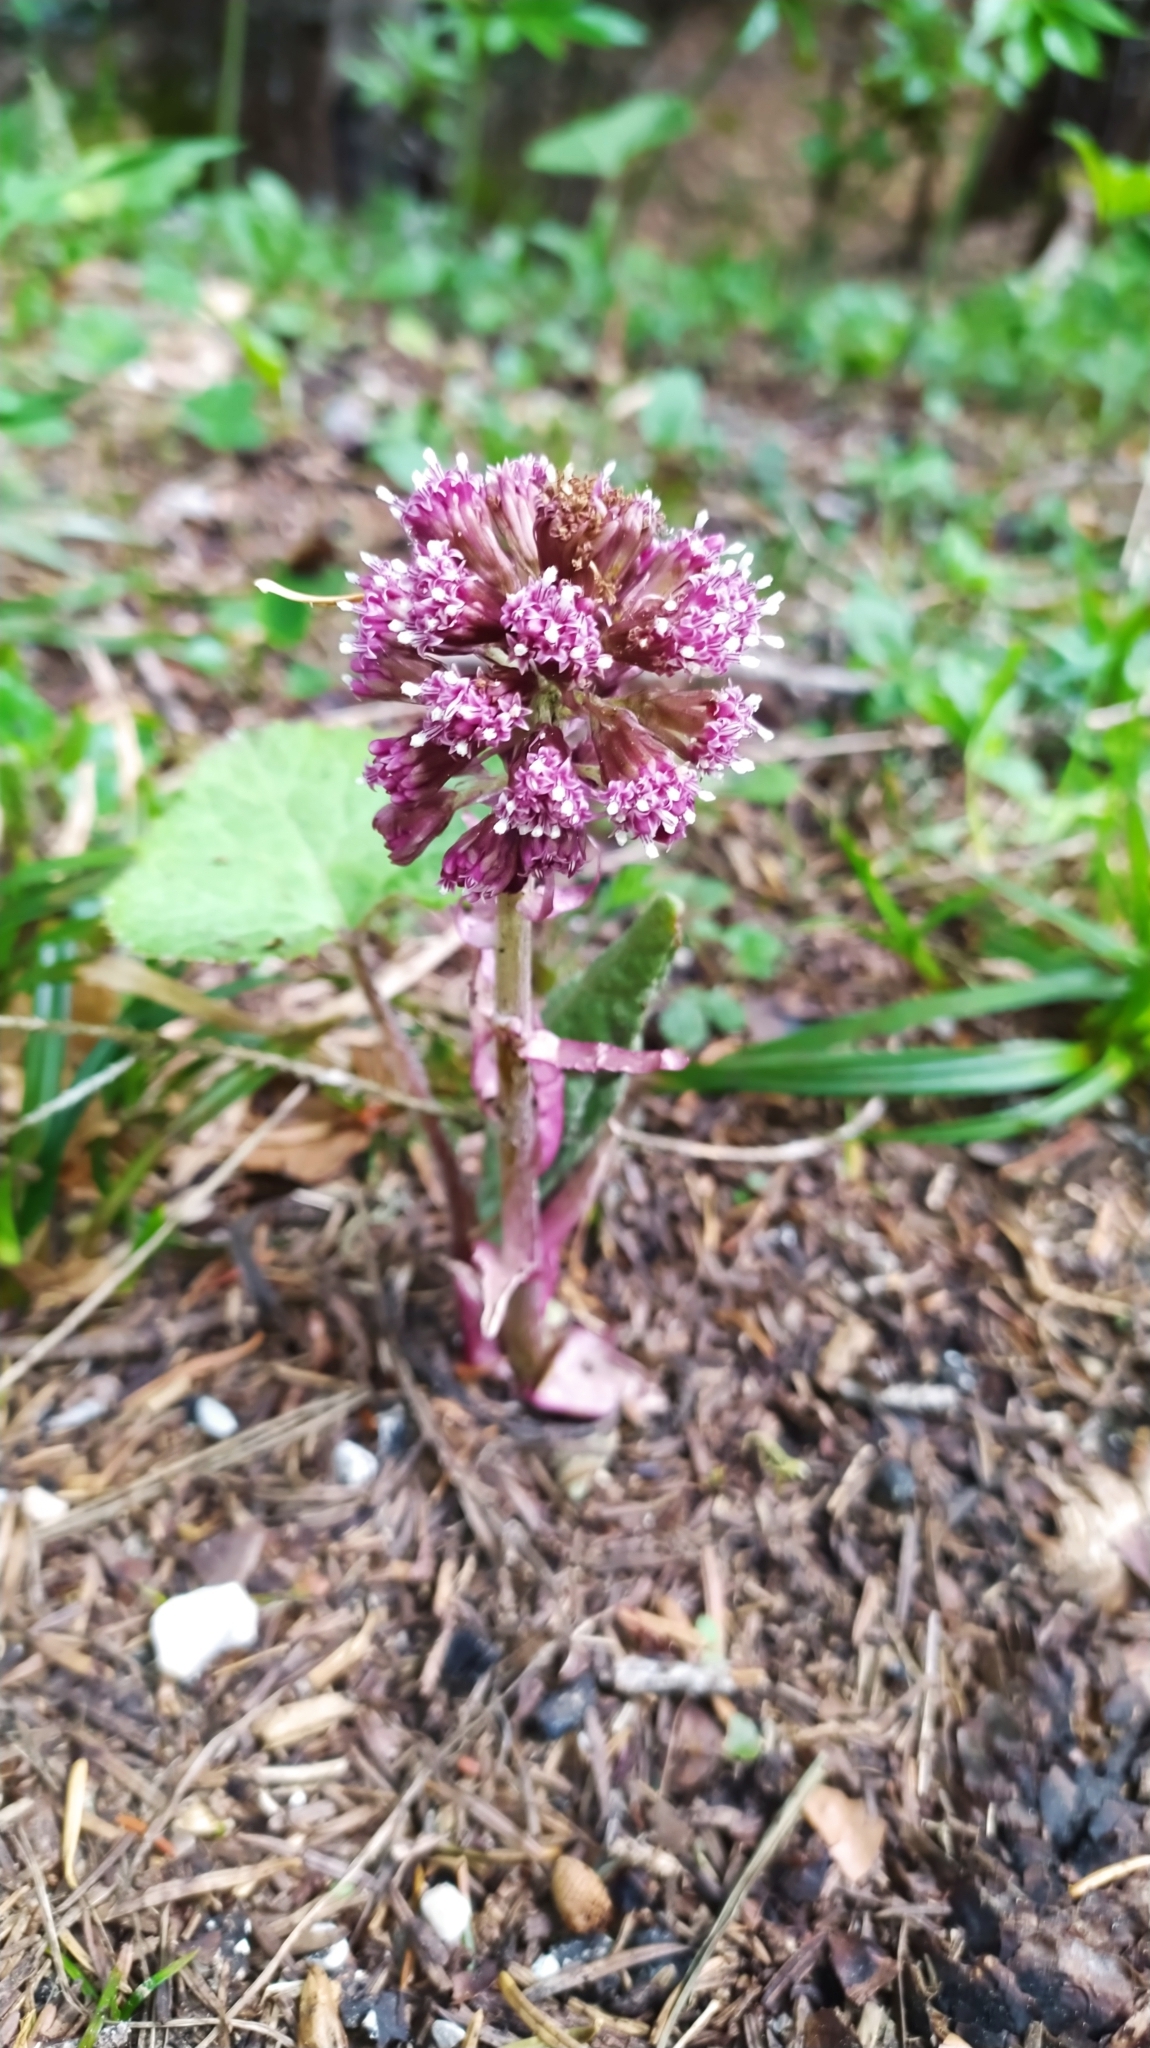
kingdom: Plantae
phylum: Tracheophyta
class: Magnoliopsida
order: Asterales
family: Asteraceae
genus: Petasites
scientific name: Petasites hybridus
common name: Butterbur
